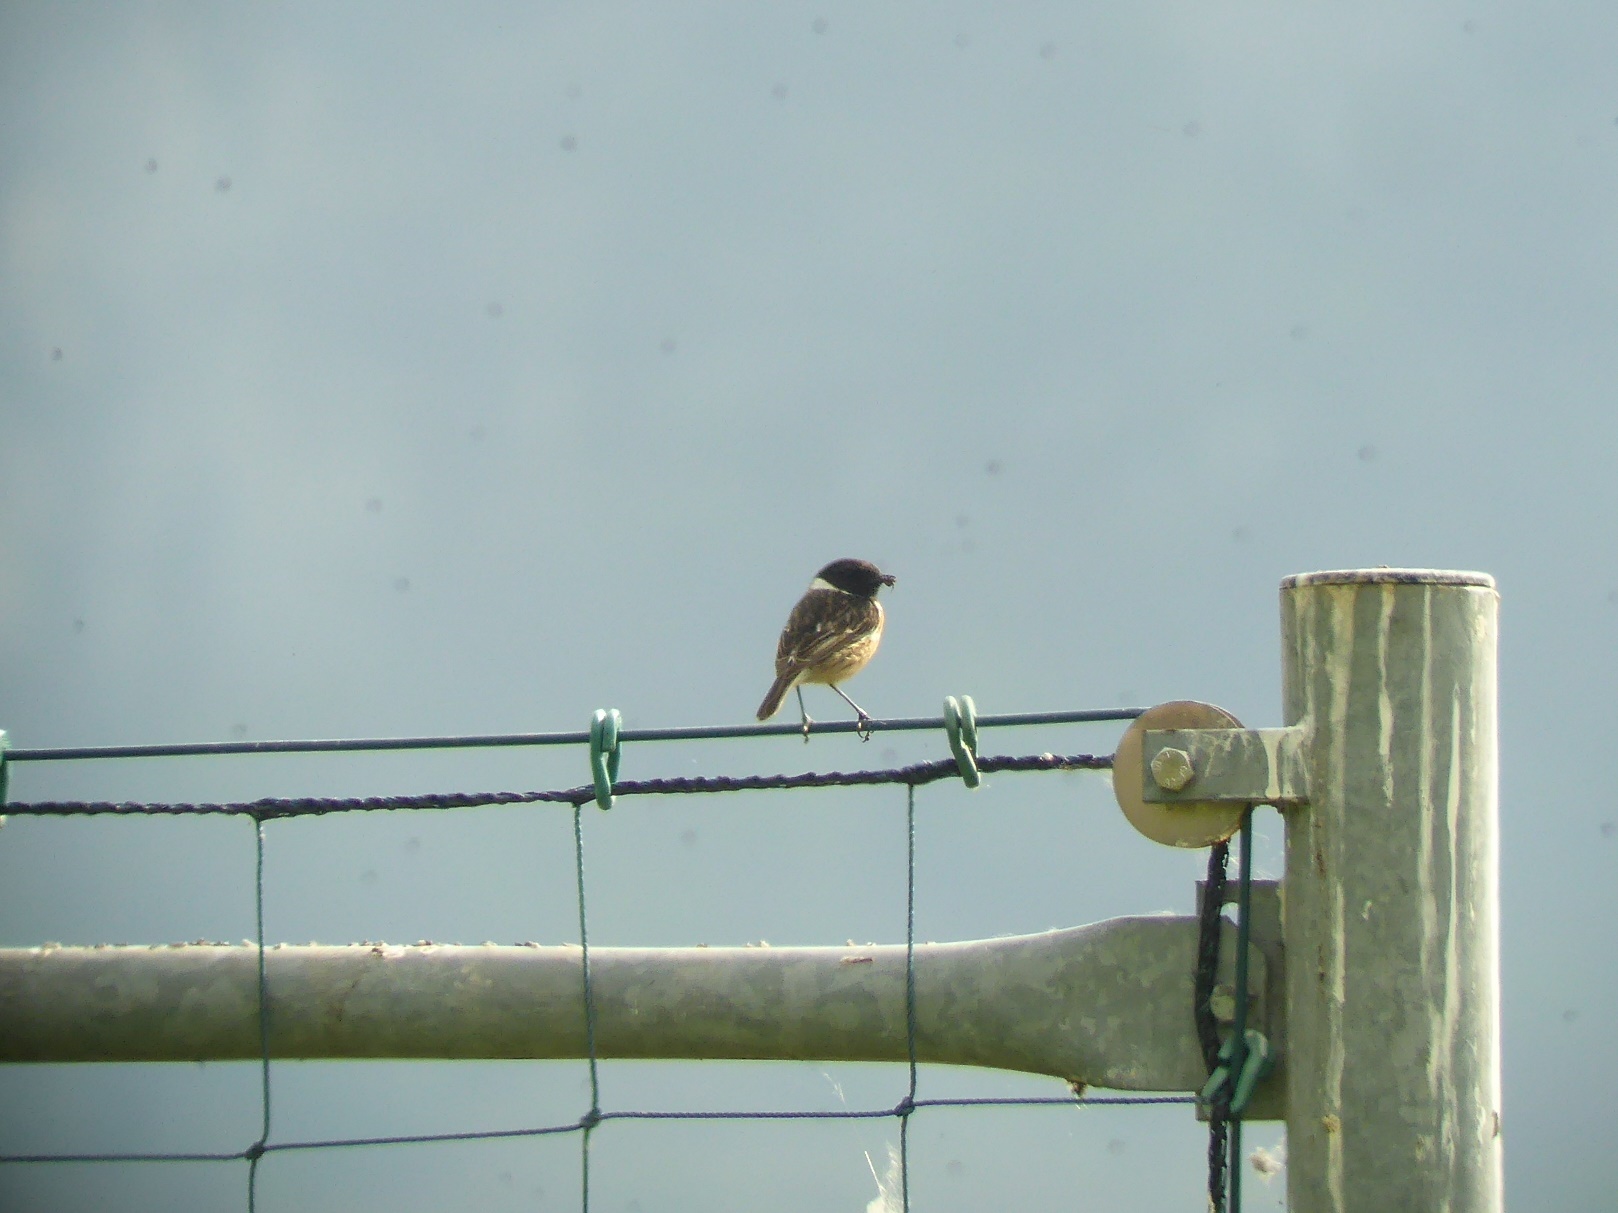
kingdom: Animalia
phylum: Chordata
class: Aves
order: Passeriformes
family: Muscicapidae
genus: Saxicola
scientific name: Saxicola rubicola
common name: European stonechat
